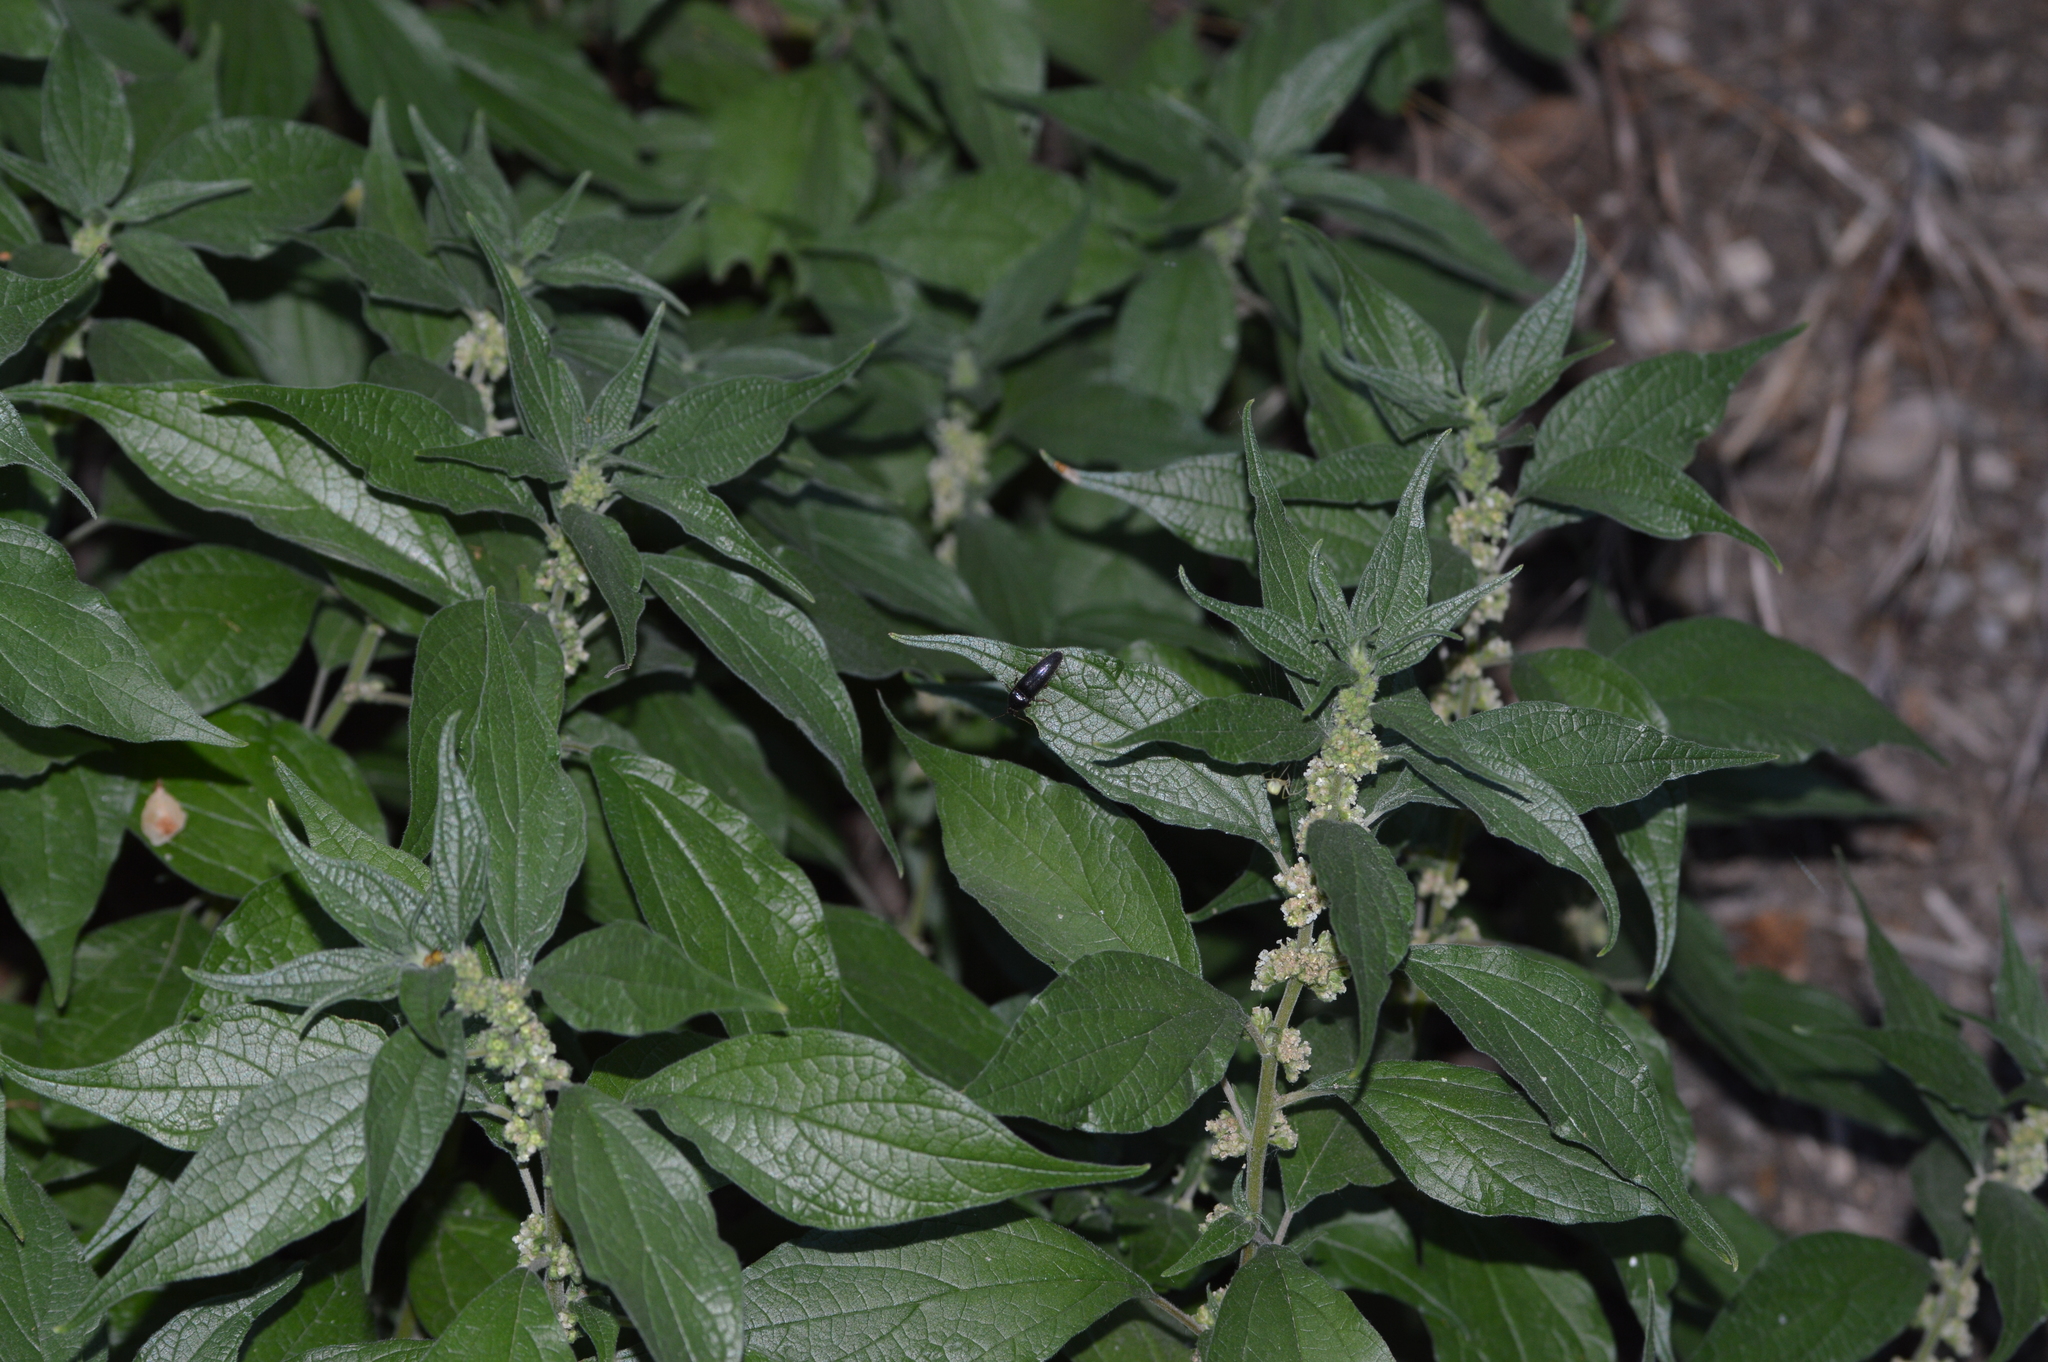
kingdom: Plantae
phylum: Tracheophyta
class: Magnoliopsida
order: Rosales
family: Urticaceae
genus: Parietaria
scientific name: Parietaria officinalis
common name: Eastern pellitory-of-the-wall
